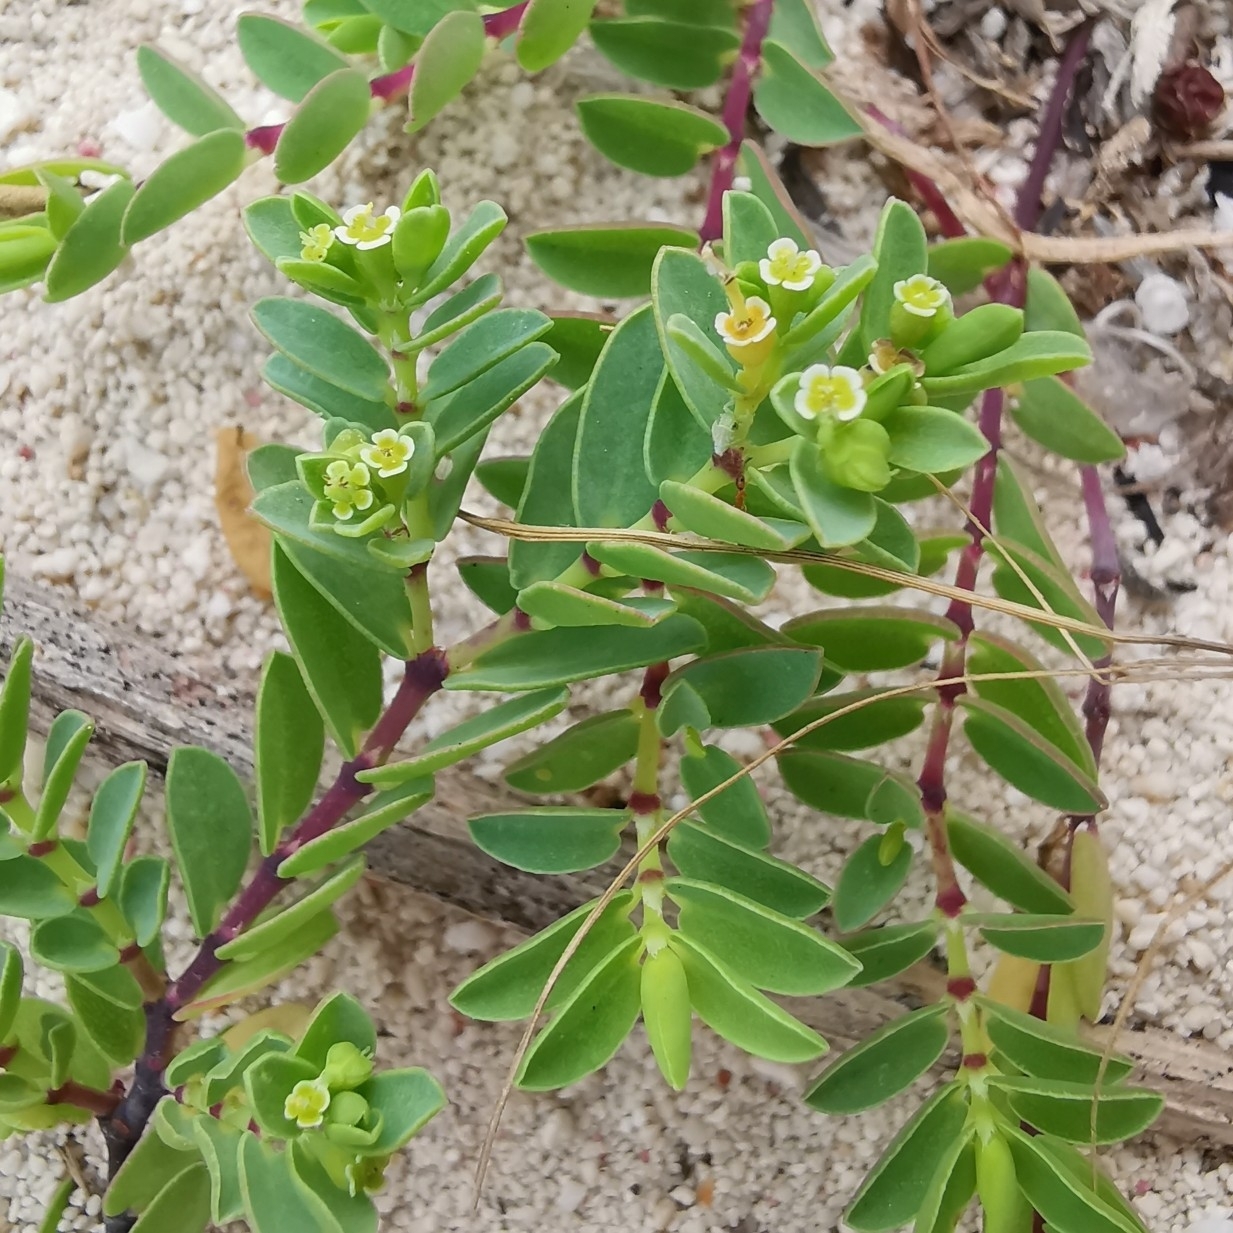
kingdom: Plantae
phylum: Tracheophyta
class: Magnoliopsida
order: Malpighiales
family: Euphorbiaceae
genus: Euphorbia
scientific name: Euphorbia mesembryanthemifolia
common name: Coastal beach sandmat
